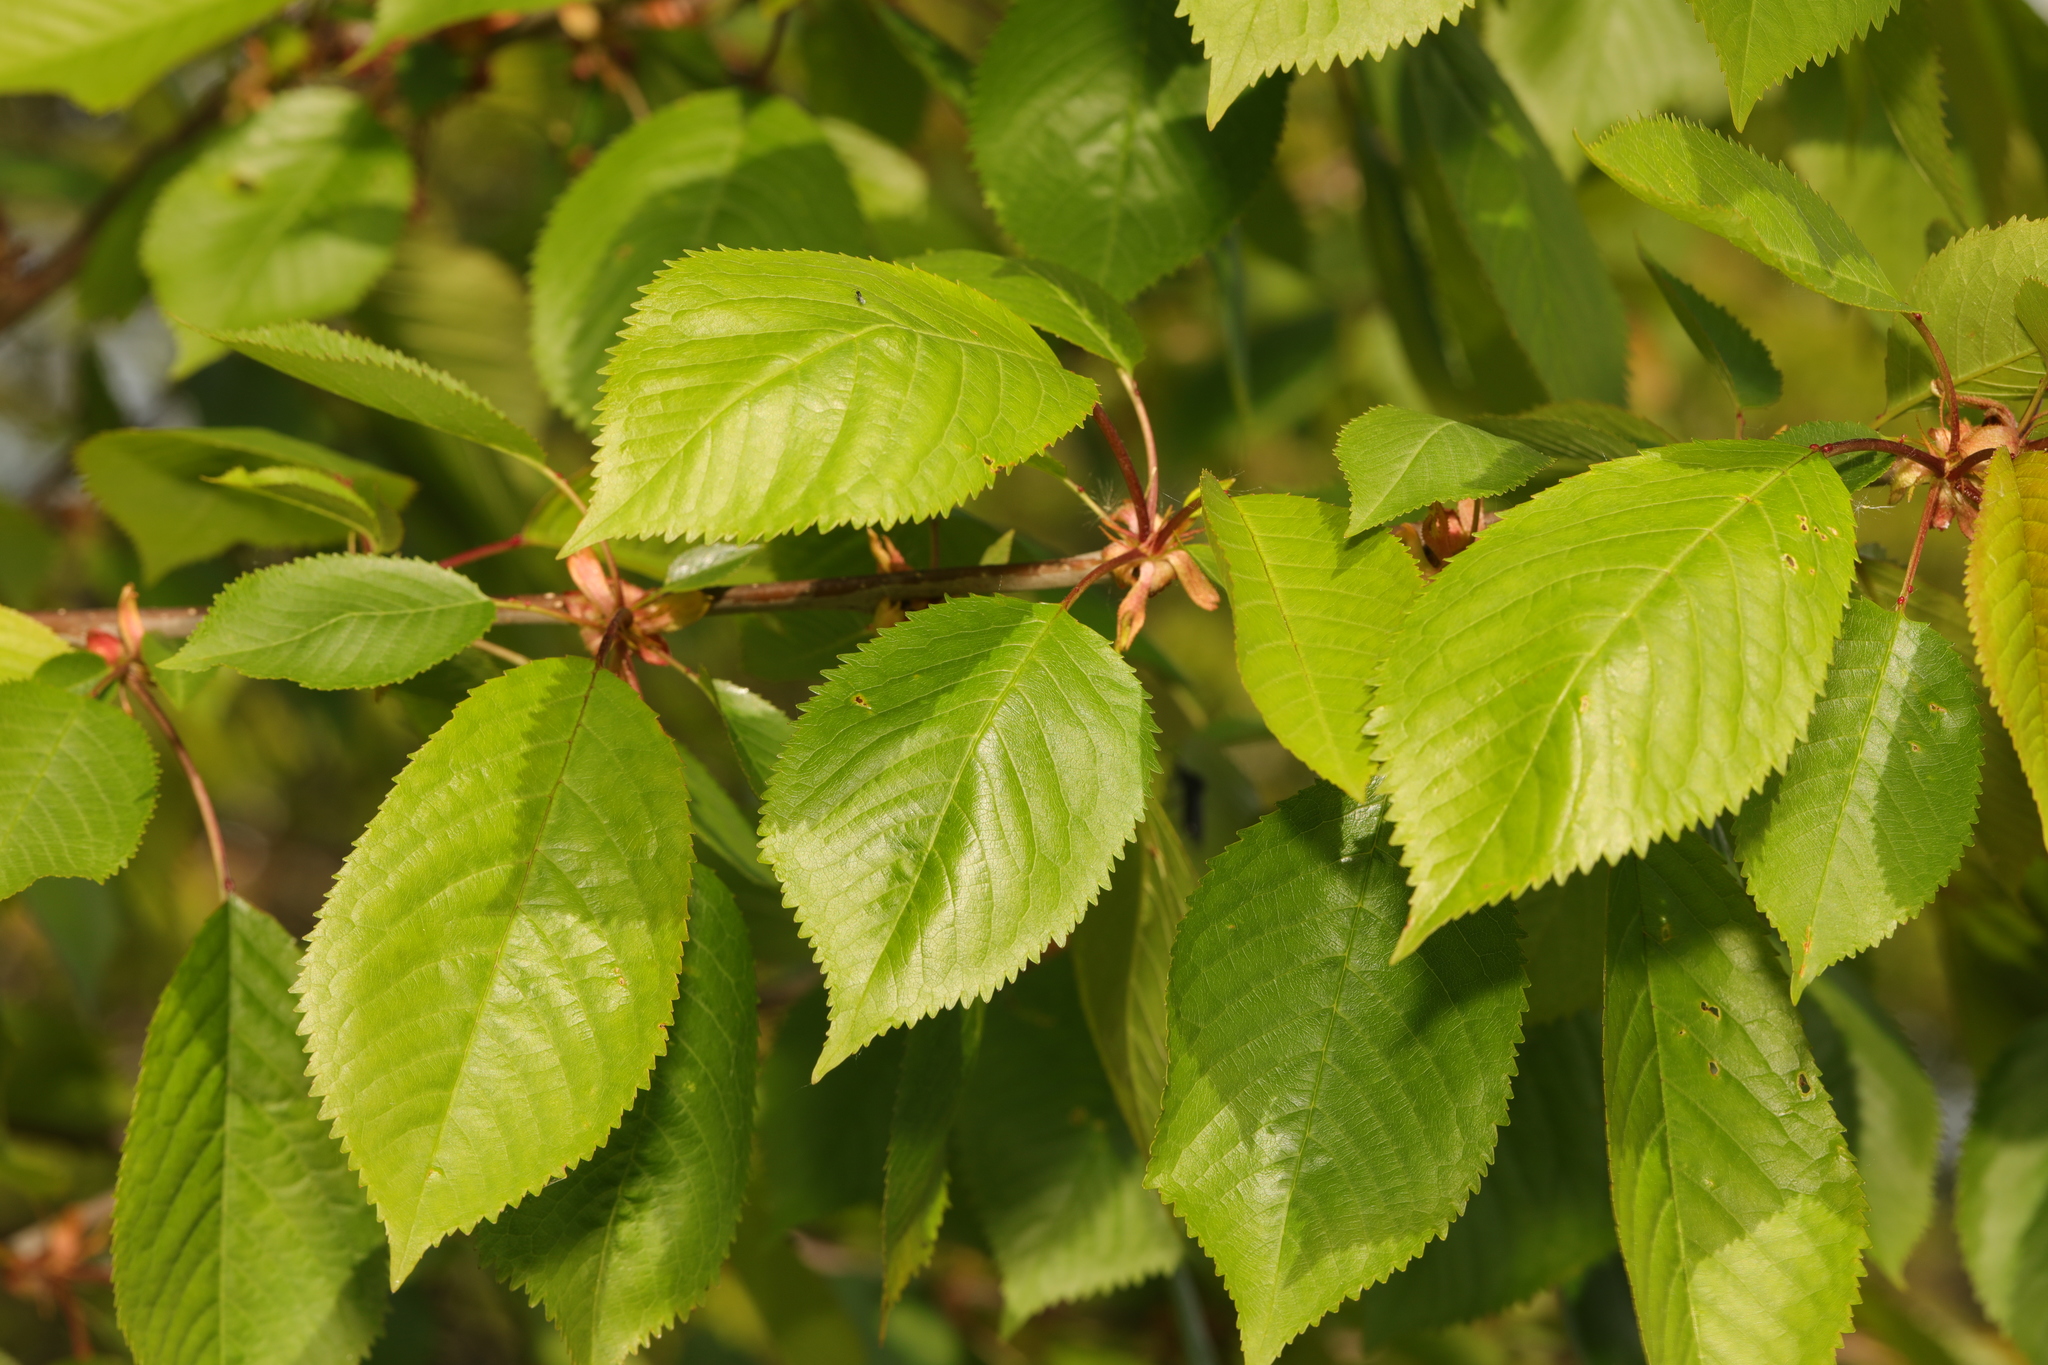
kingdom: Plantae
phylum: Tracheophyta
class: Magnoliopsida
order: Rosales
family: Rosaceae
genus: Prunus
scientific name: Prunus avium
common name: Sweet cherry
